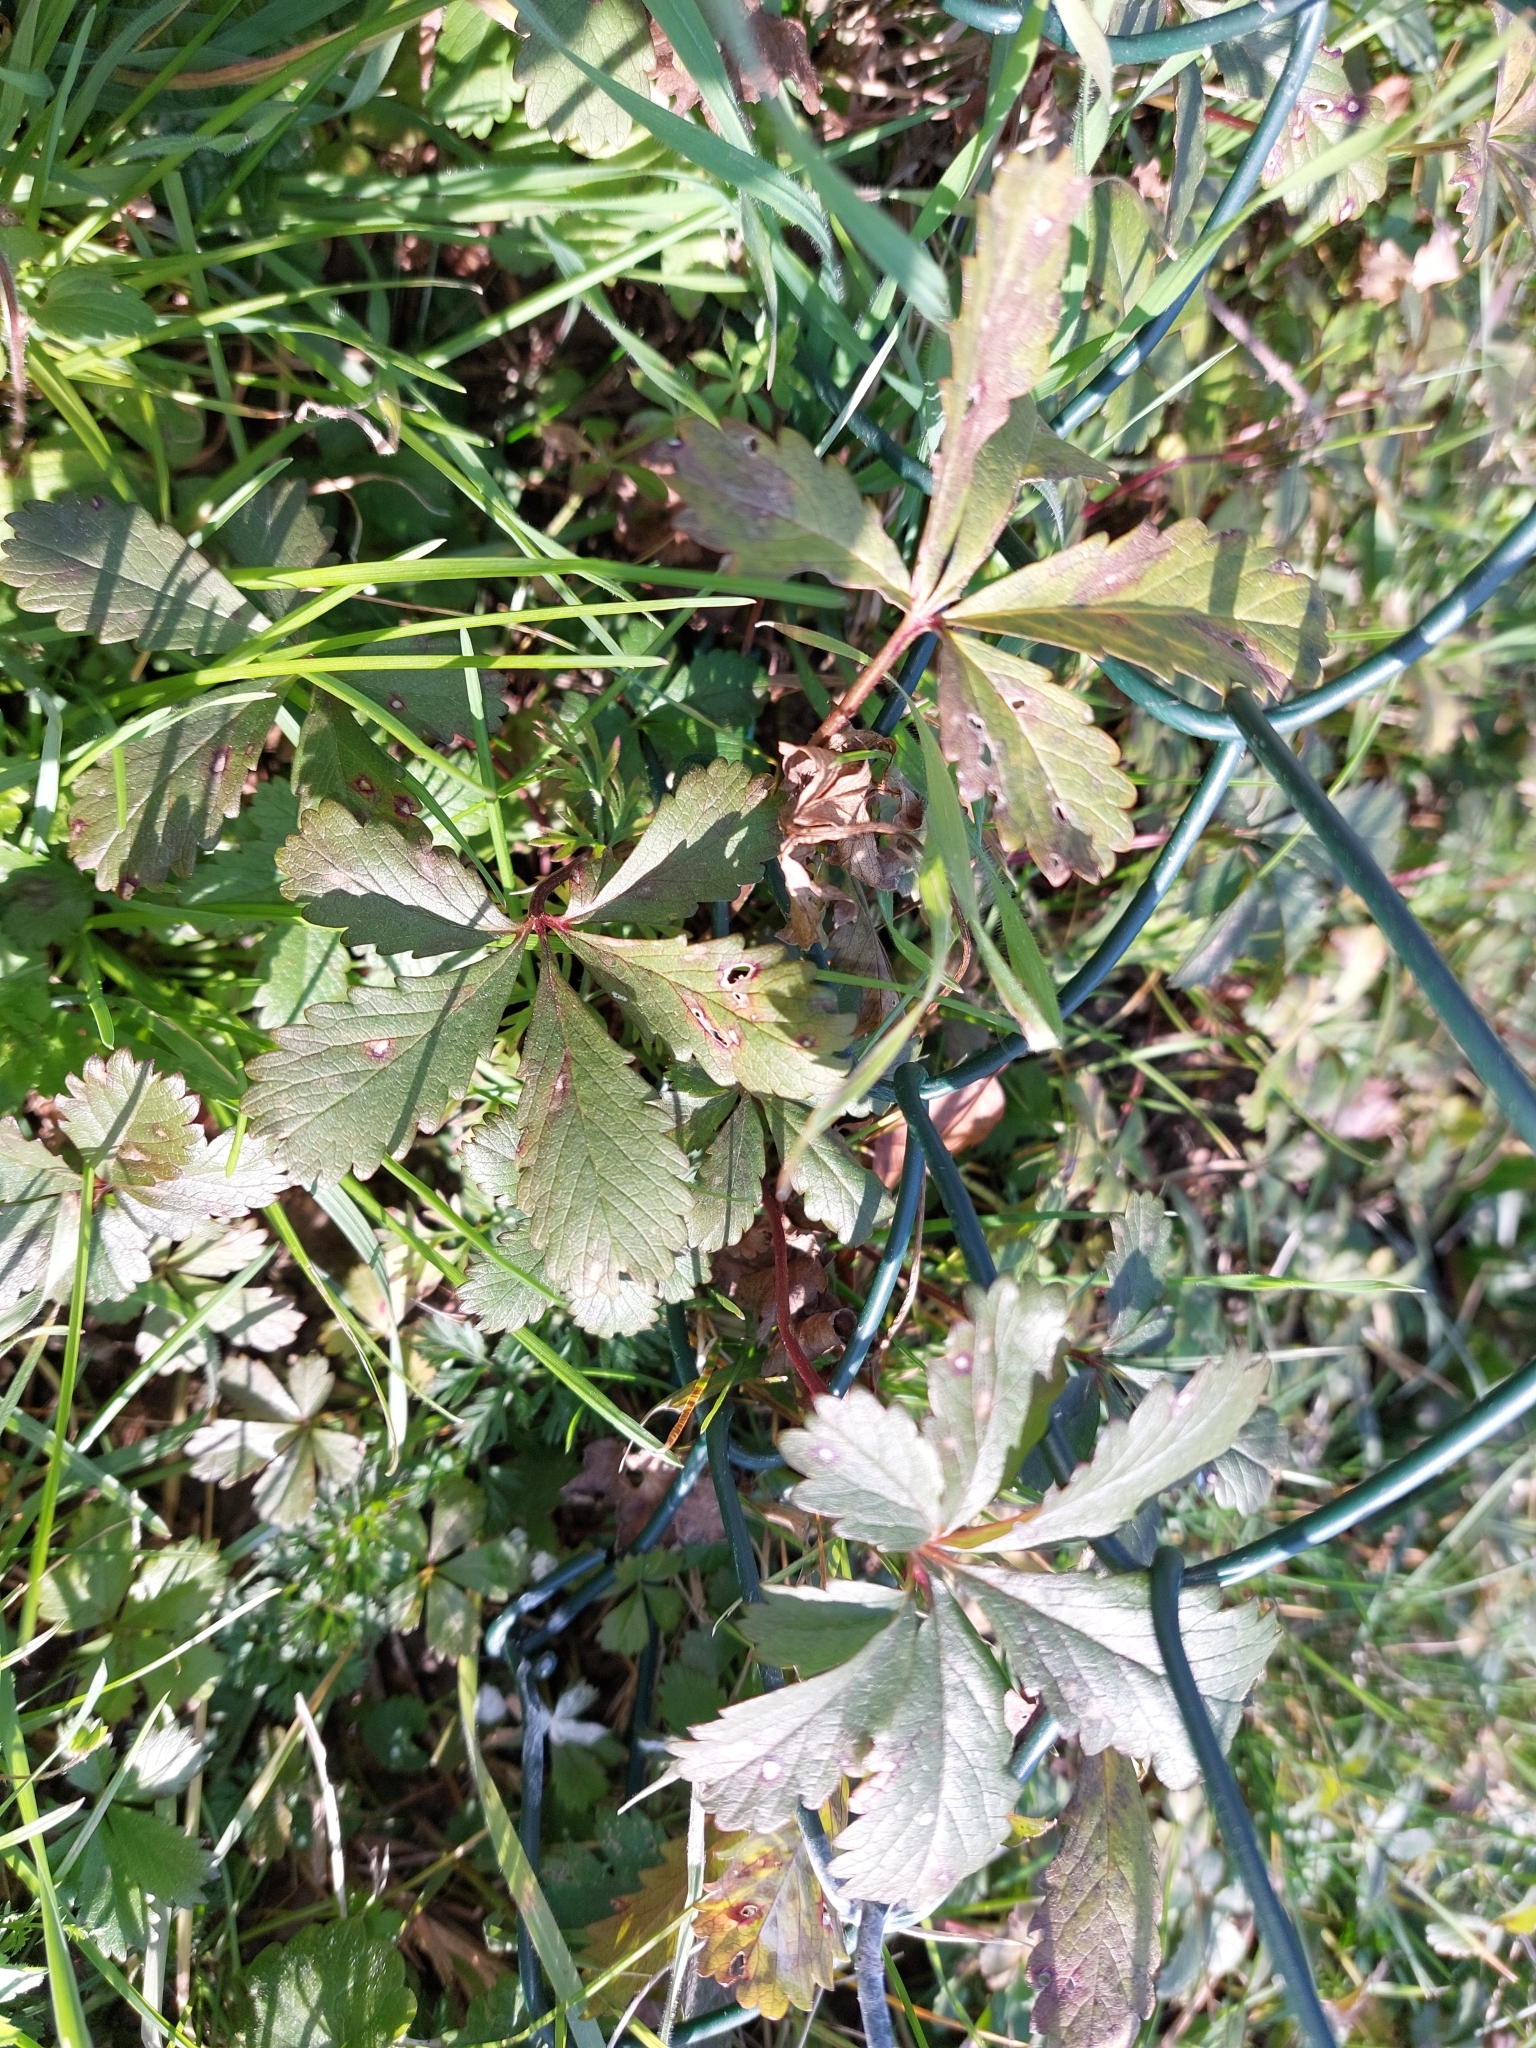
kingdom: Plantae
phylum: Tracheophyta
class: Magnoliopsida
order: Rosales
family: Rosaceae
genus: Potentilla
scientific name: Potentilla reptans
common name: Creeping cinquefoil
